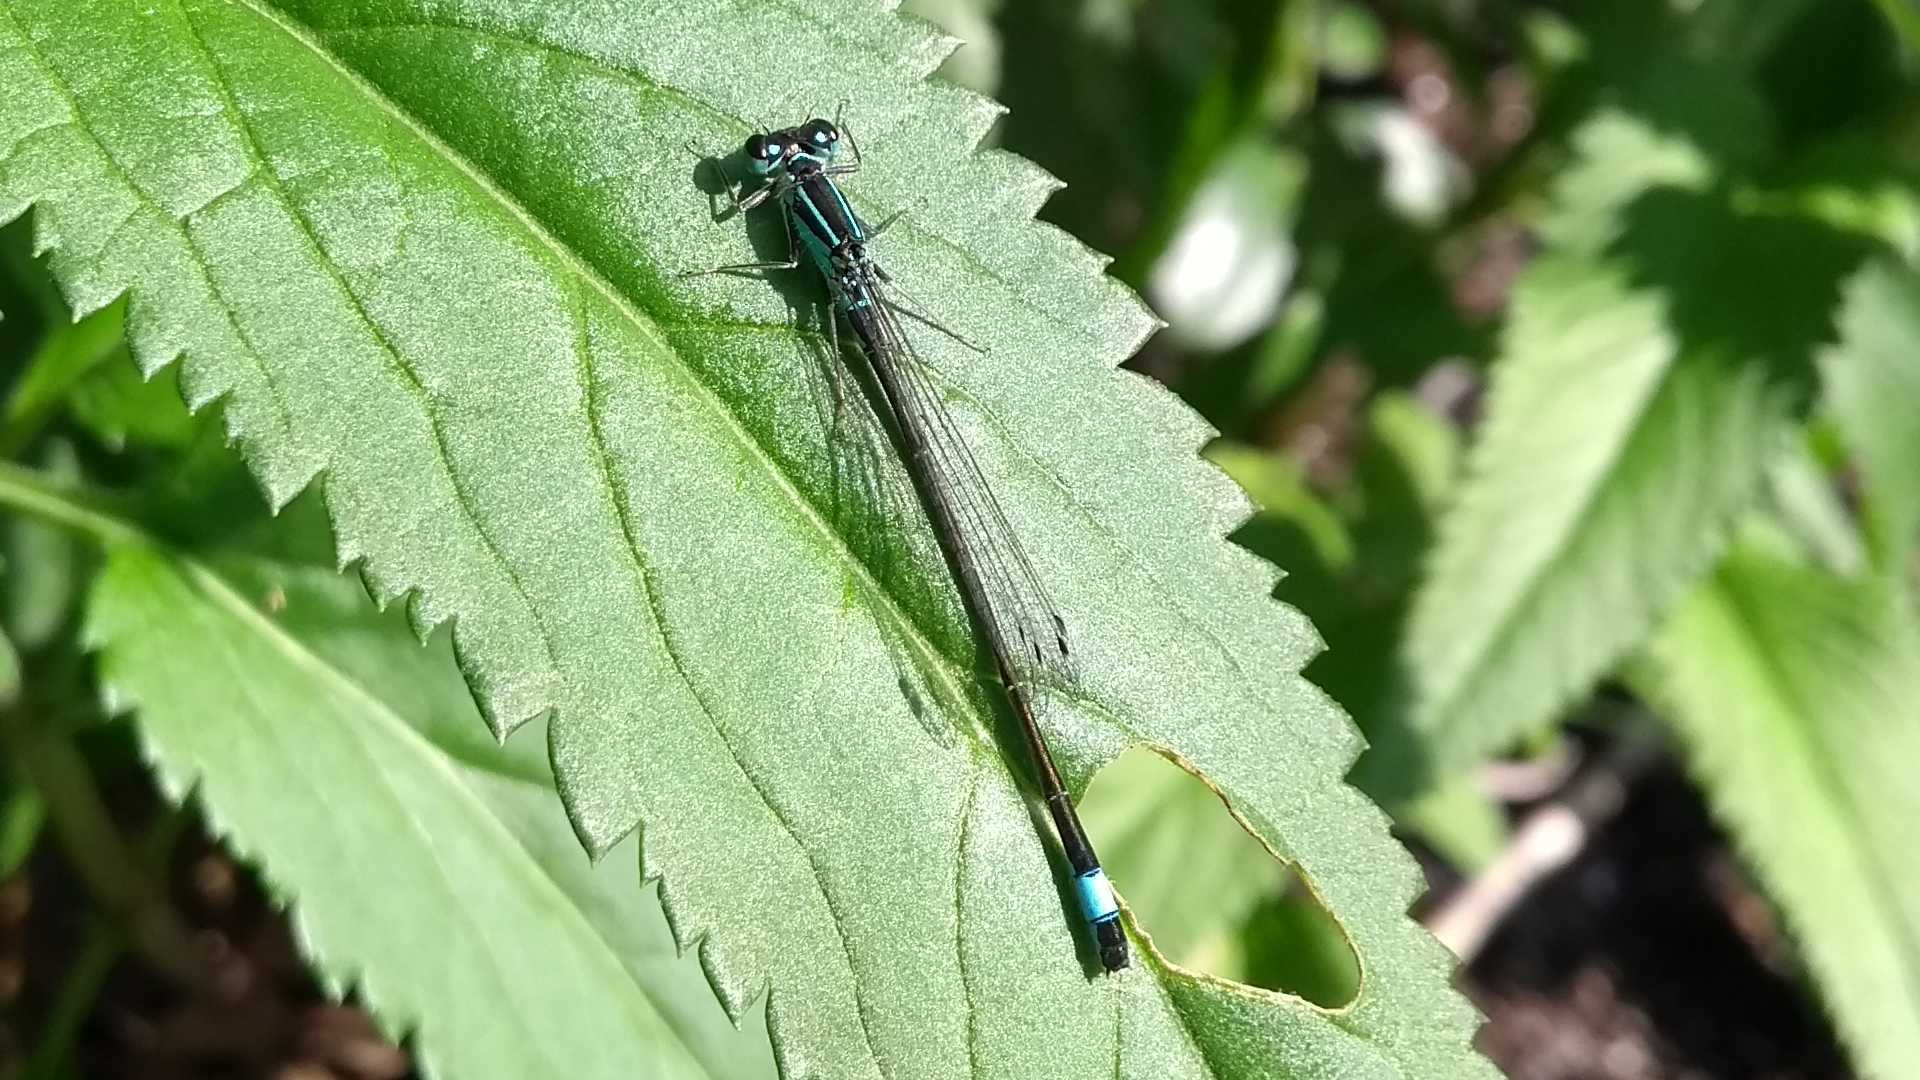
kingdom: Animalia
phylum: Arthropoda
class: Insecta
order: Odonata
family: Coenagrionidae
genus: Ischnura
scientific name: Ischnura elegans
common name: Blue-tailed damselfly
